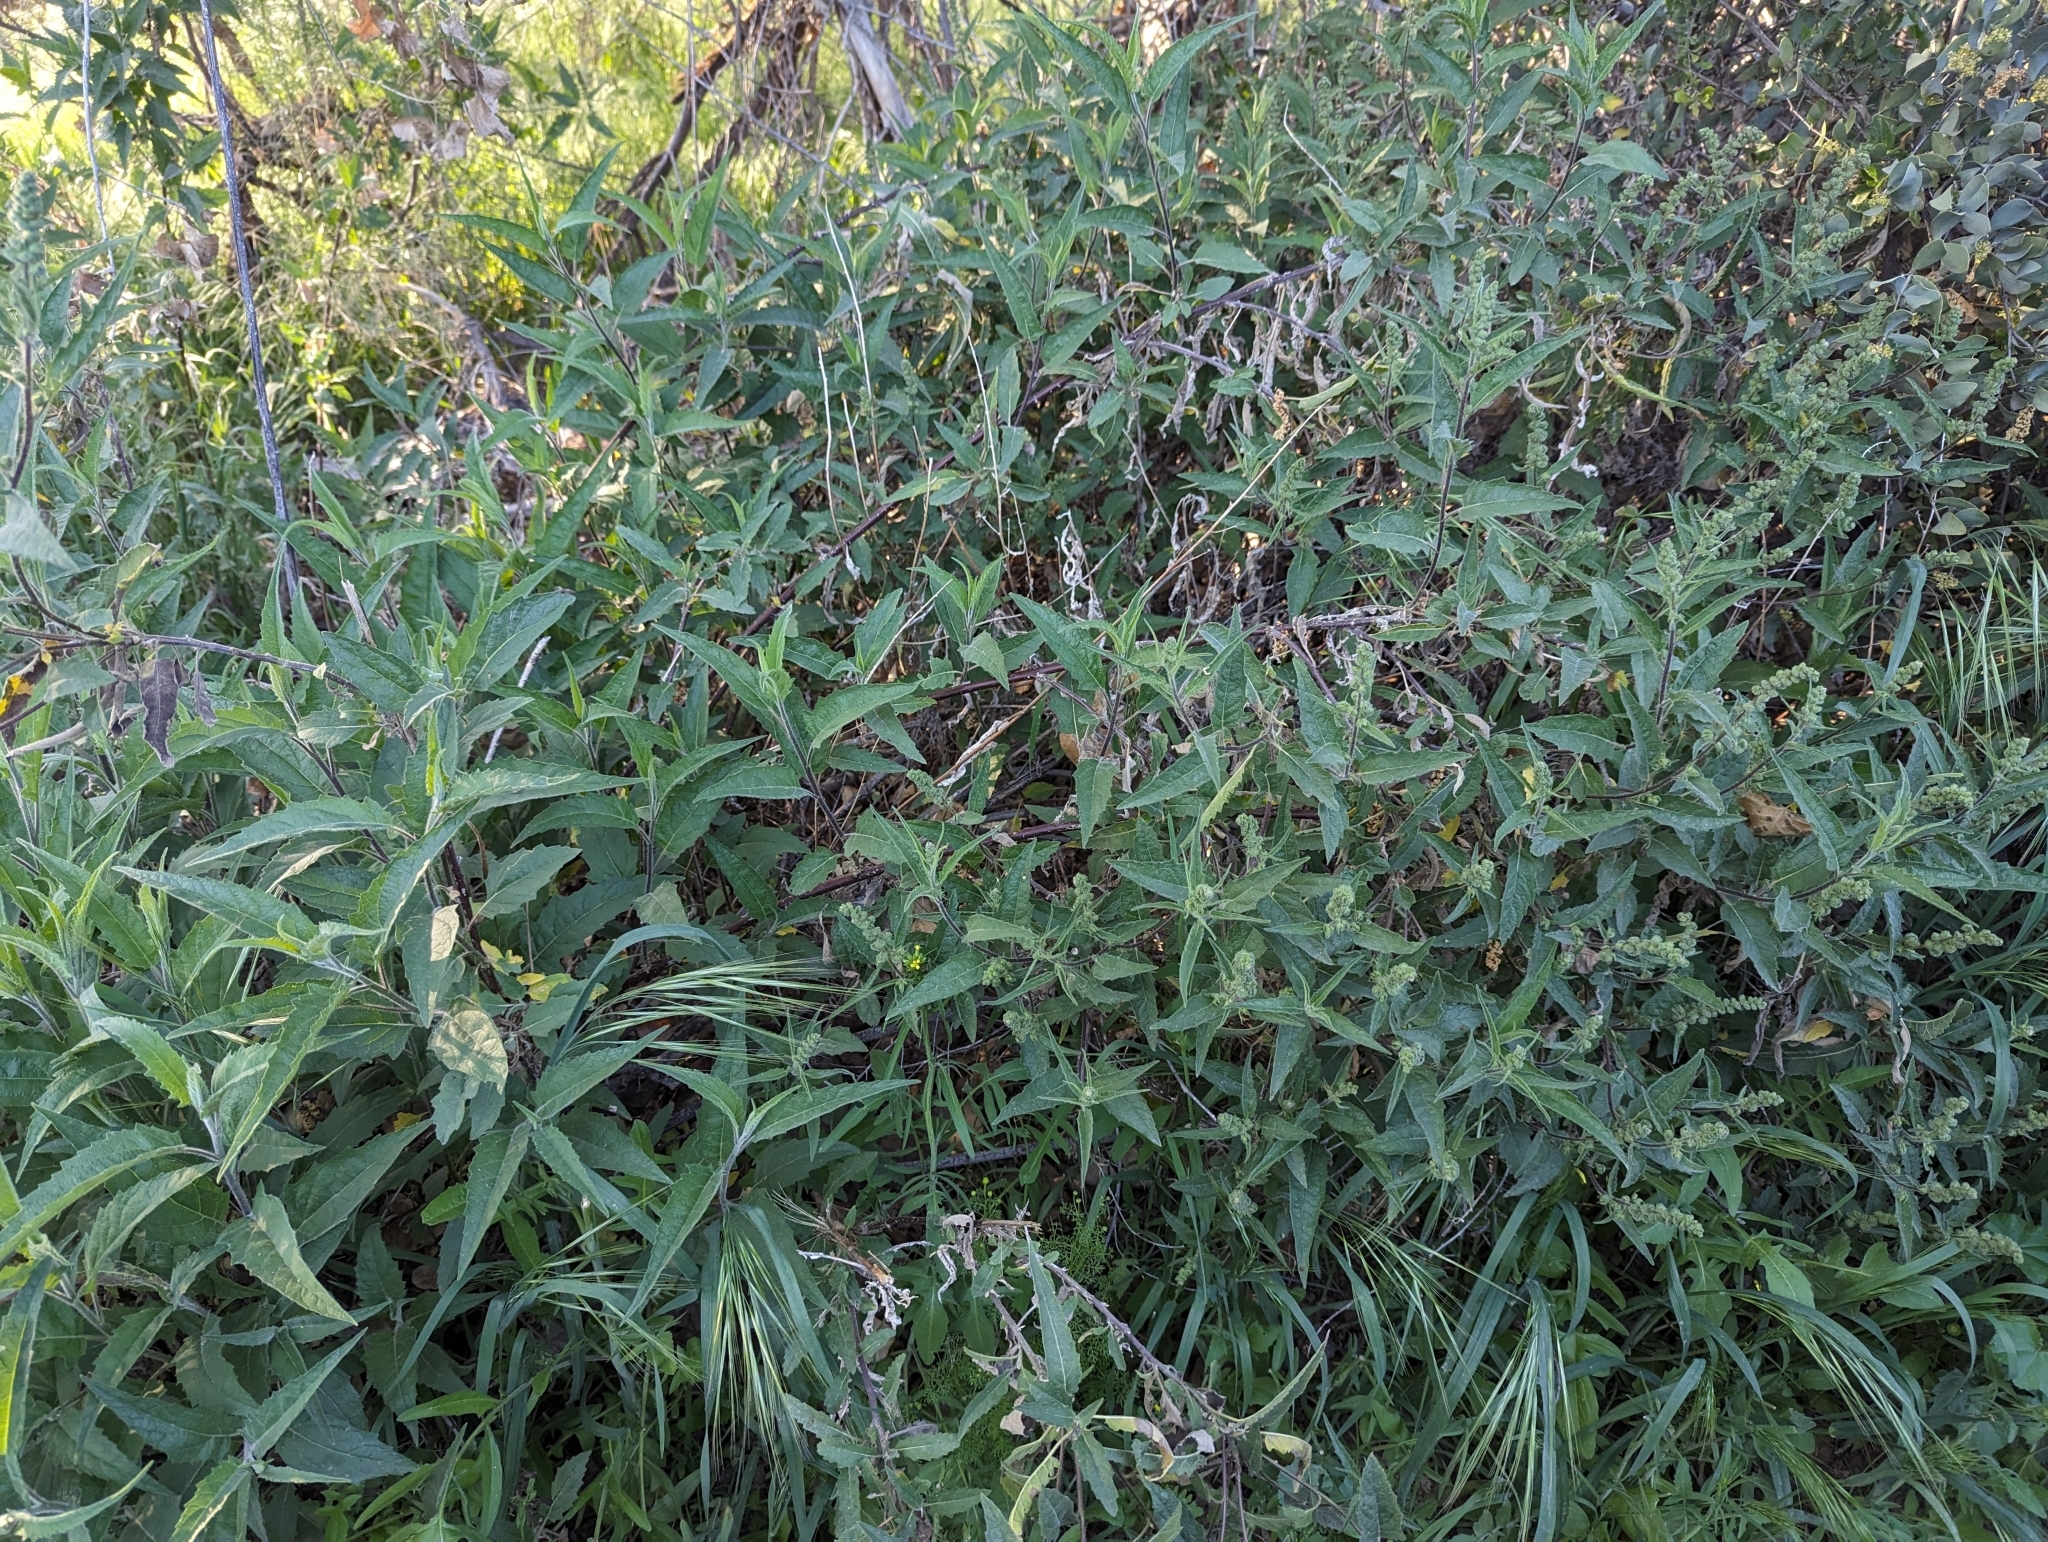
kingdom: Plantae
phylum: Tracheophyta
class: Magnoliopsida
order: Asterales
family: Asteraceae
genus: Ambrosia
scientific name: Ambrosia ambrosioides
